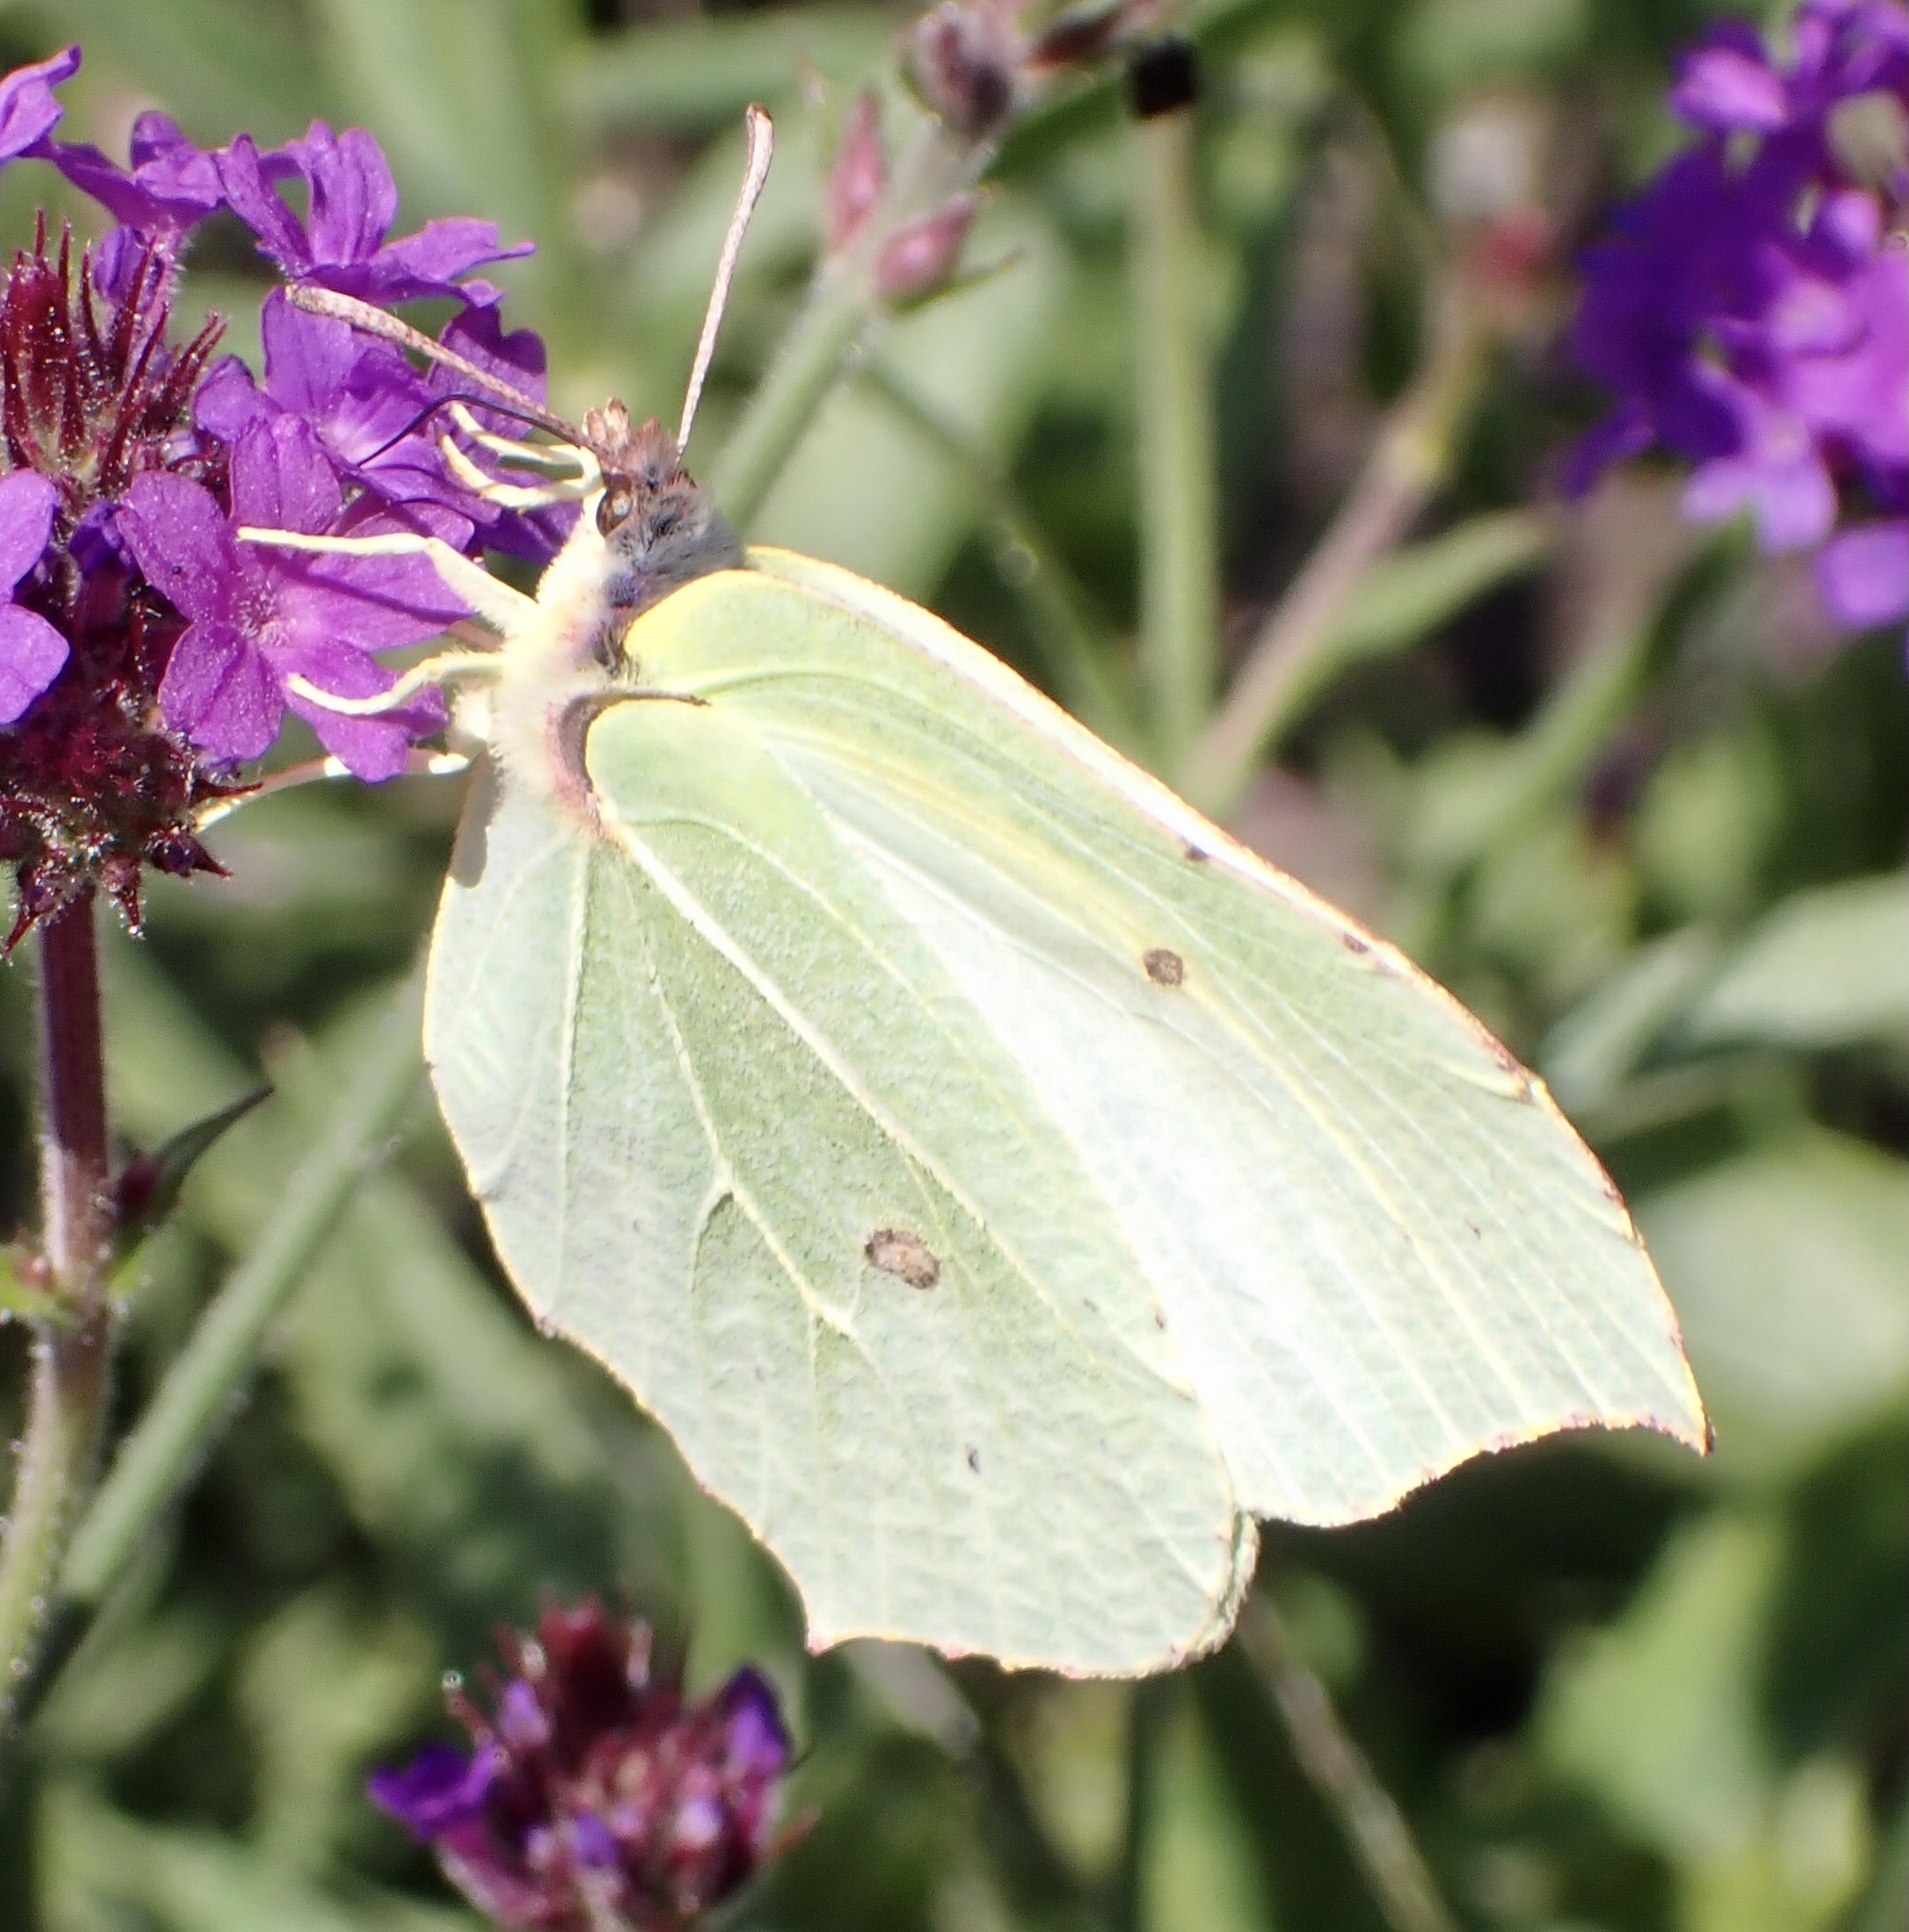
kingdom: Animalia
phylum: Arthropoda
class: Insecta
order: Lepidoptera
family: Pieridae
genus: Gonepteryx
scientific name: Gonepteryx rhamni
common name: Brimstone
